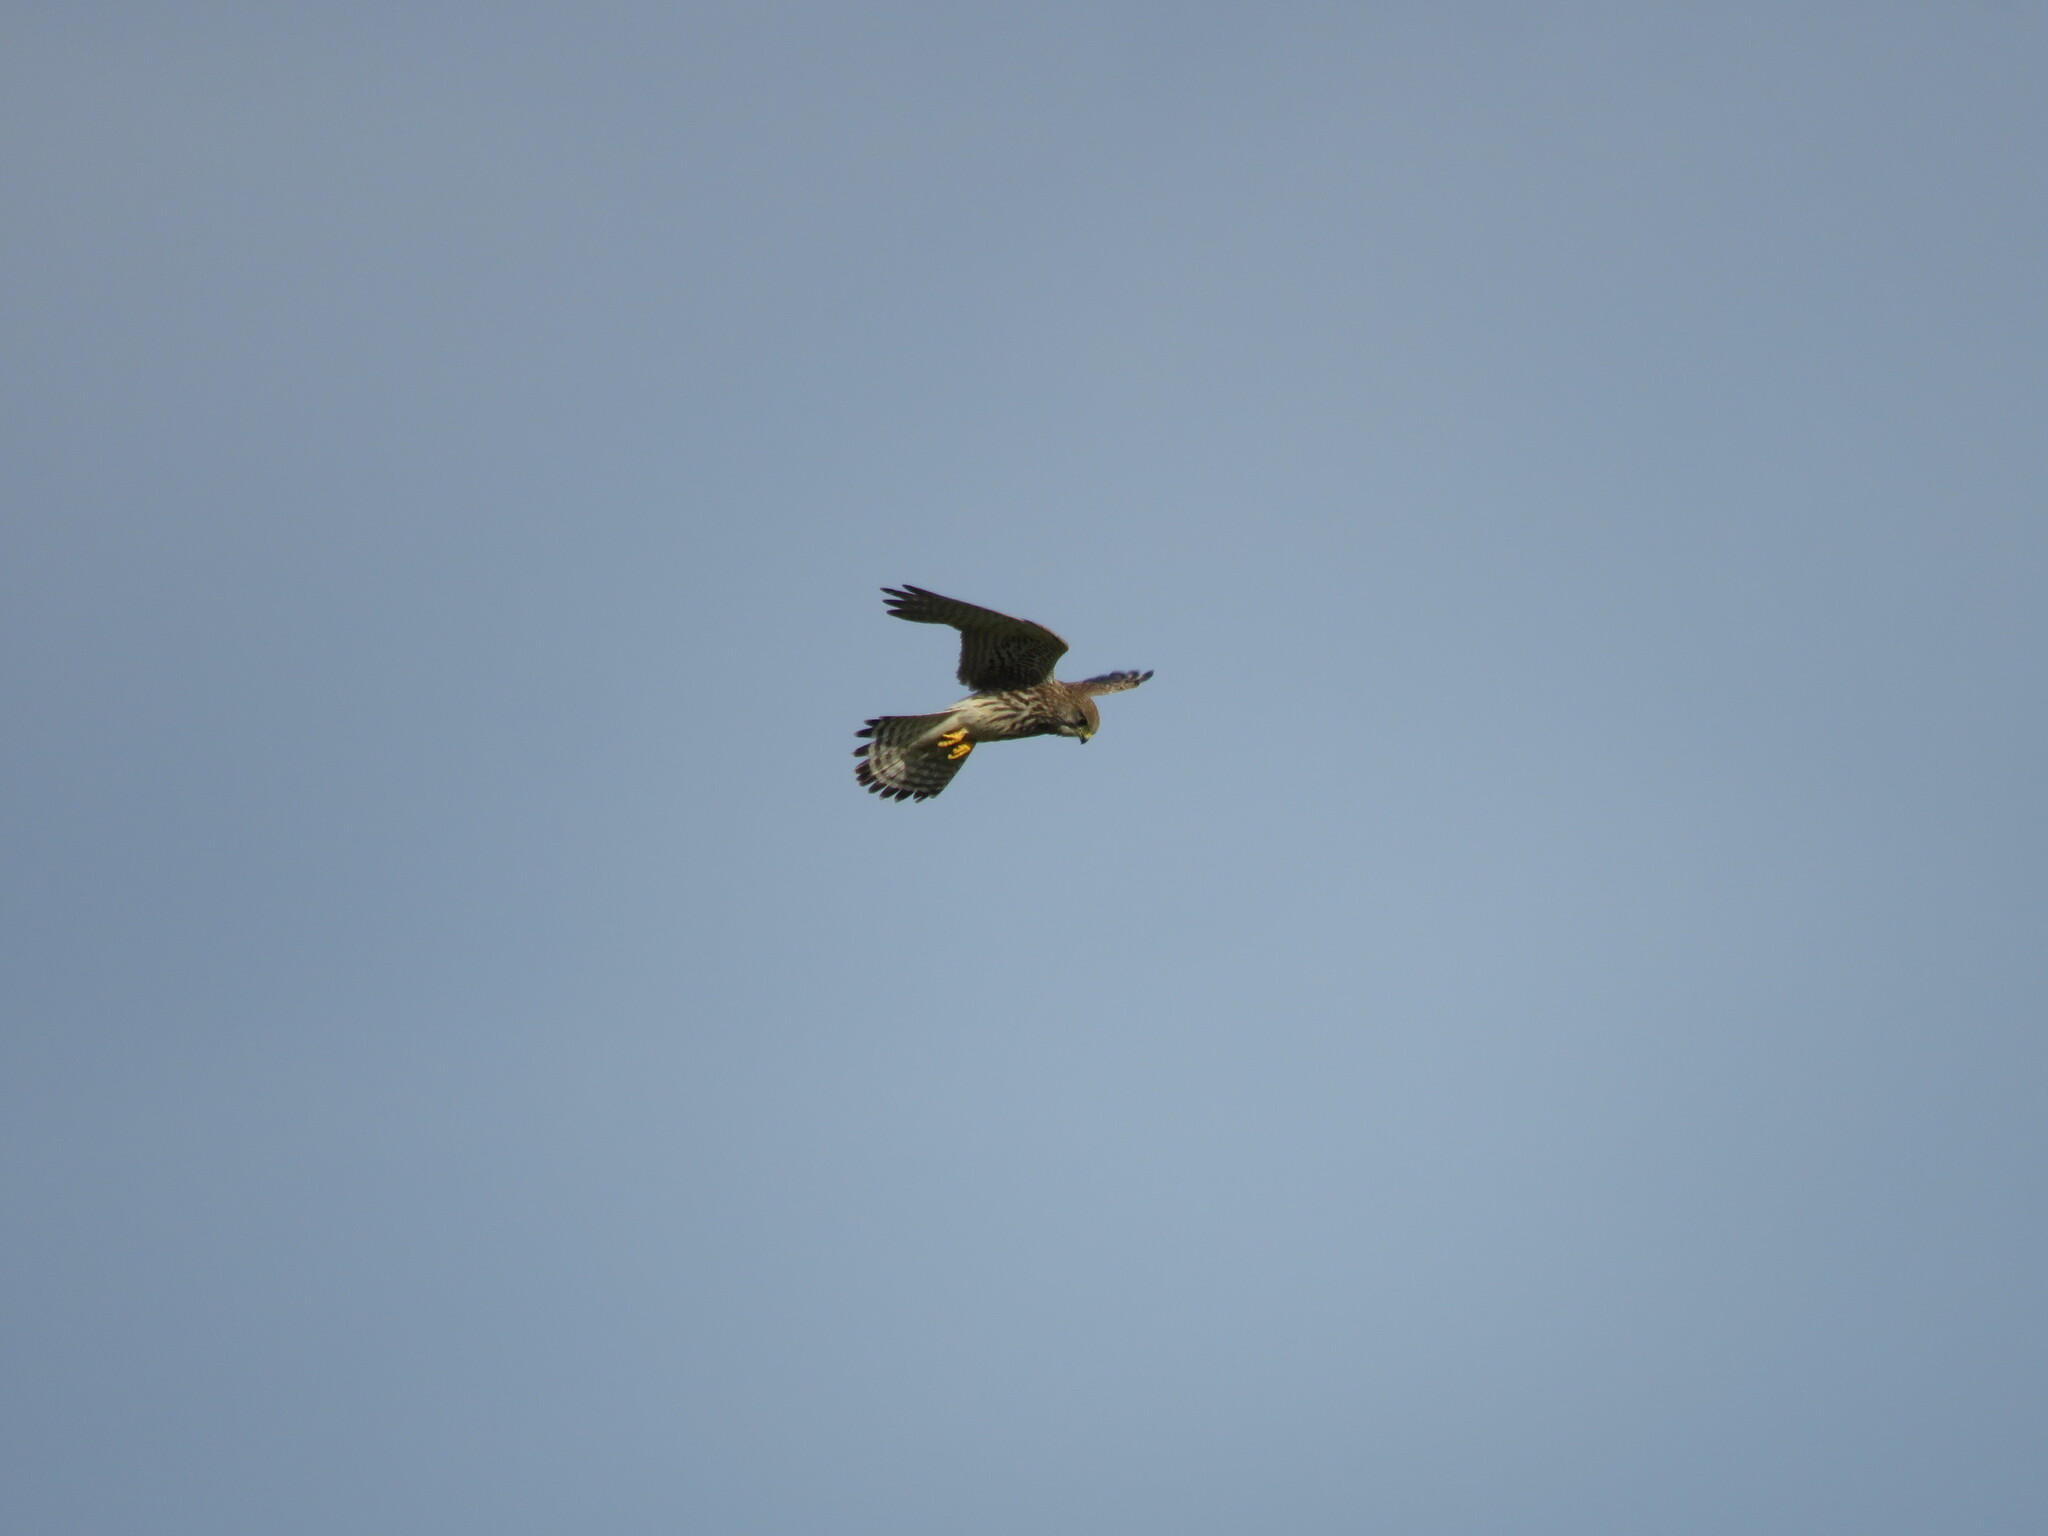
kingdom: Animalia
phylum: Chordata
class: Aves
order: Falconiformes
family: Falconidae
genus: Falco
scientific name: Falco tinnunculus
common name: Common kestrel
